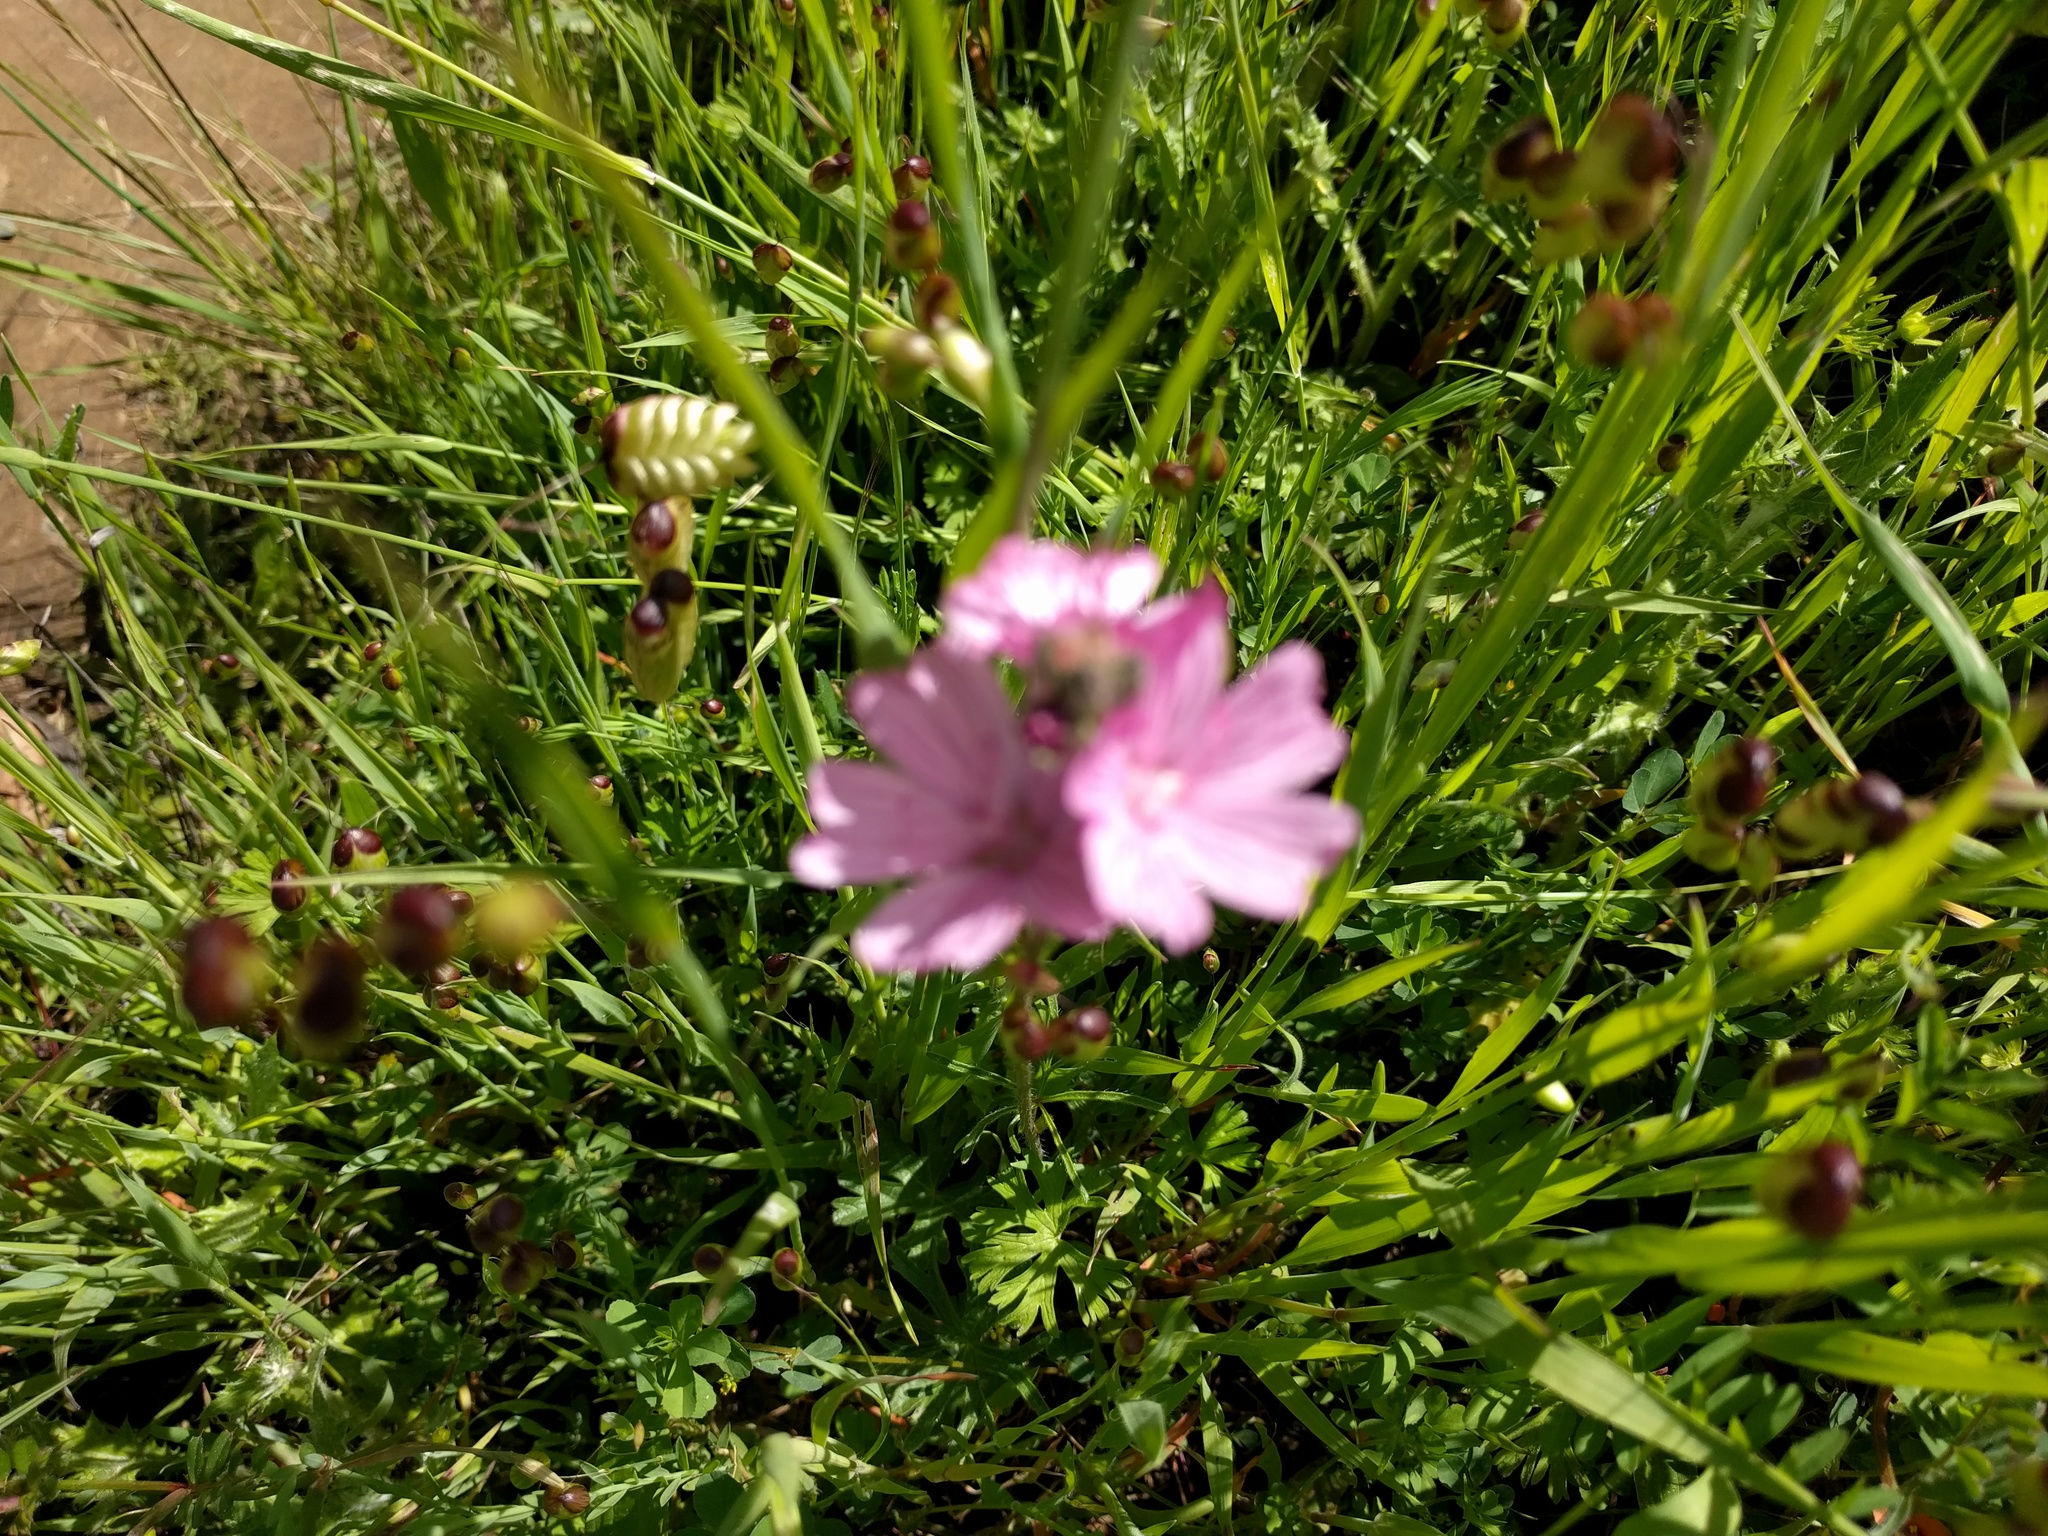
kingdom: Plantae
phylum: Tracheophyta
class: Magnoliopsida
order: Malvales
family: Malvaceae
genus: Sidalcea
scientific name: Sidalcea malviflora
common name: Greek mallow
